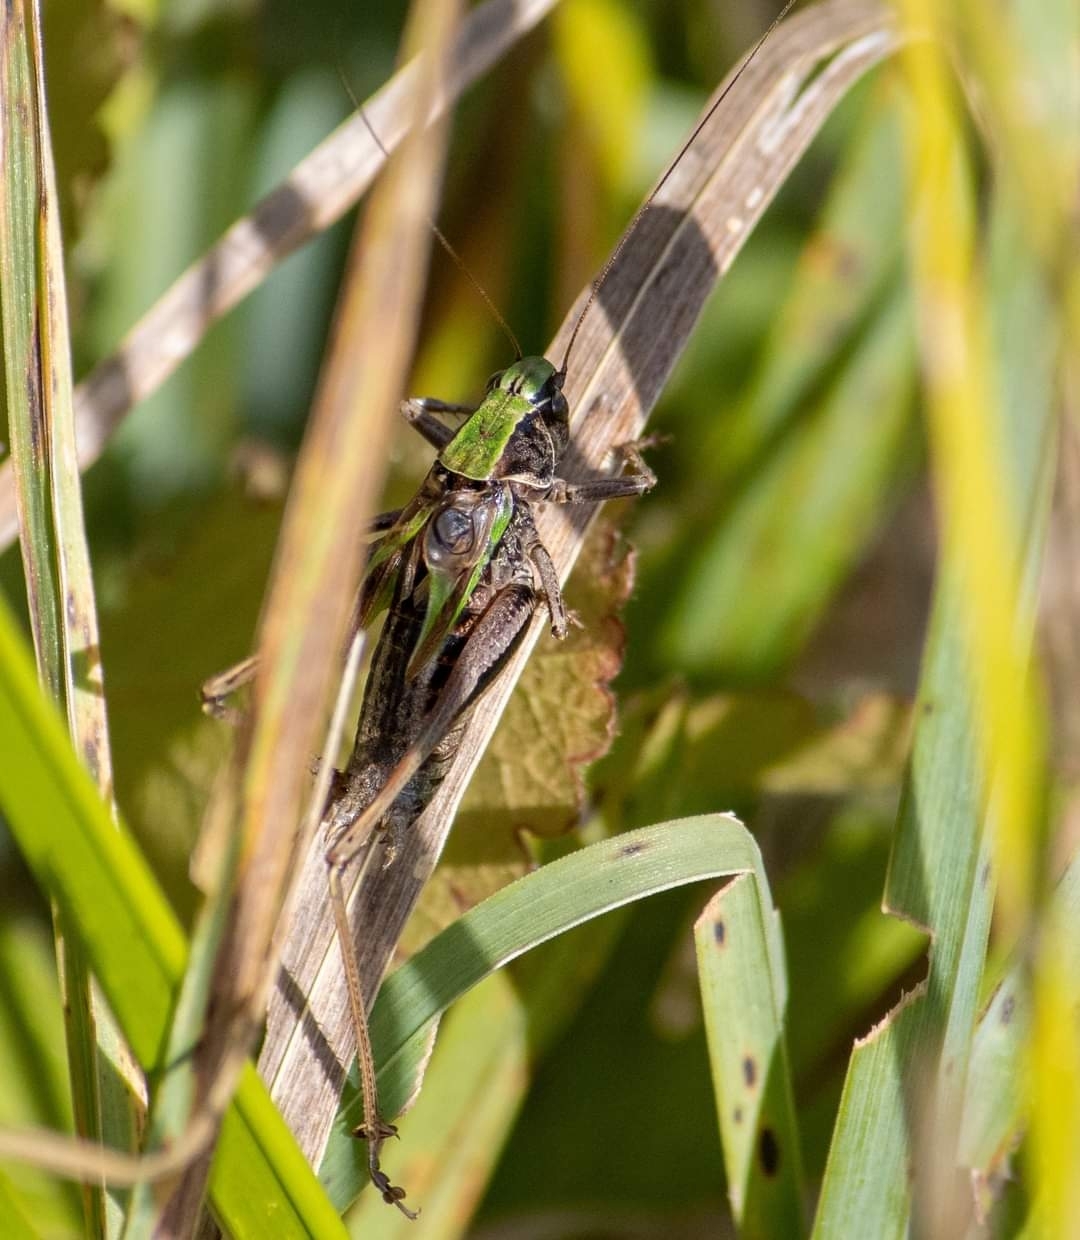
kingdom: Animalia
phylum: Arthropoda
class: Insecta
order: Orthoptera
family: Tettigoniidae
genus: Metrioptera
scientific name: Metrioptera brachyptera
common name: Bog bush-cricket
